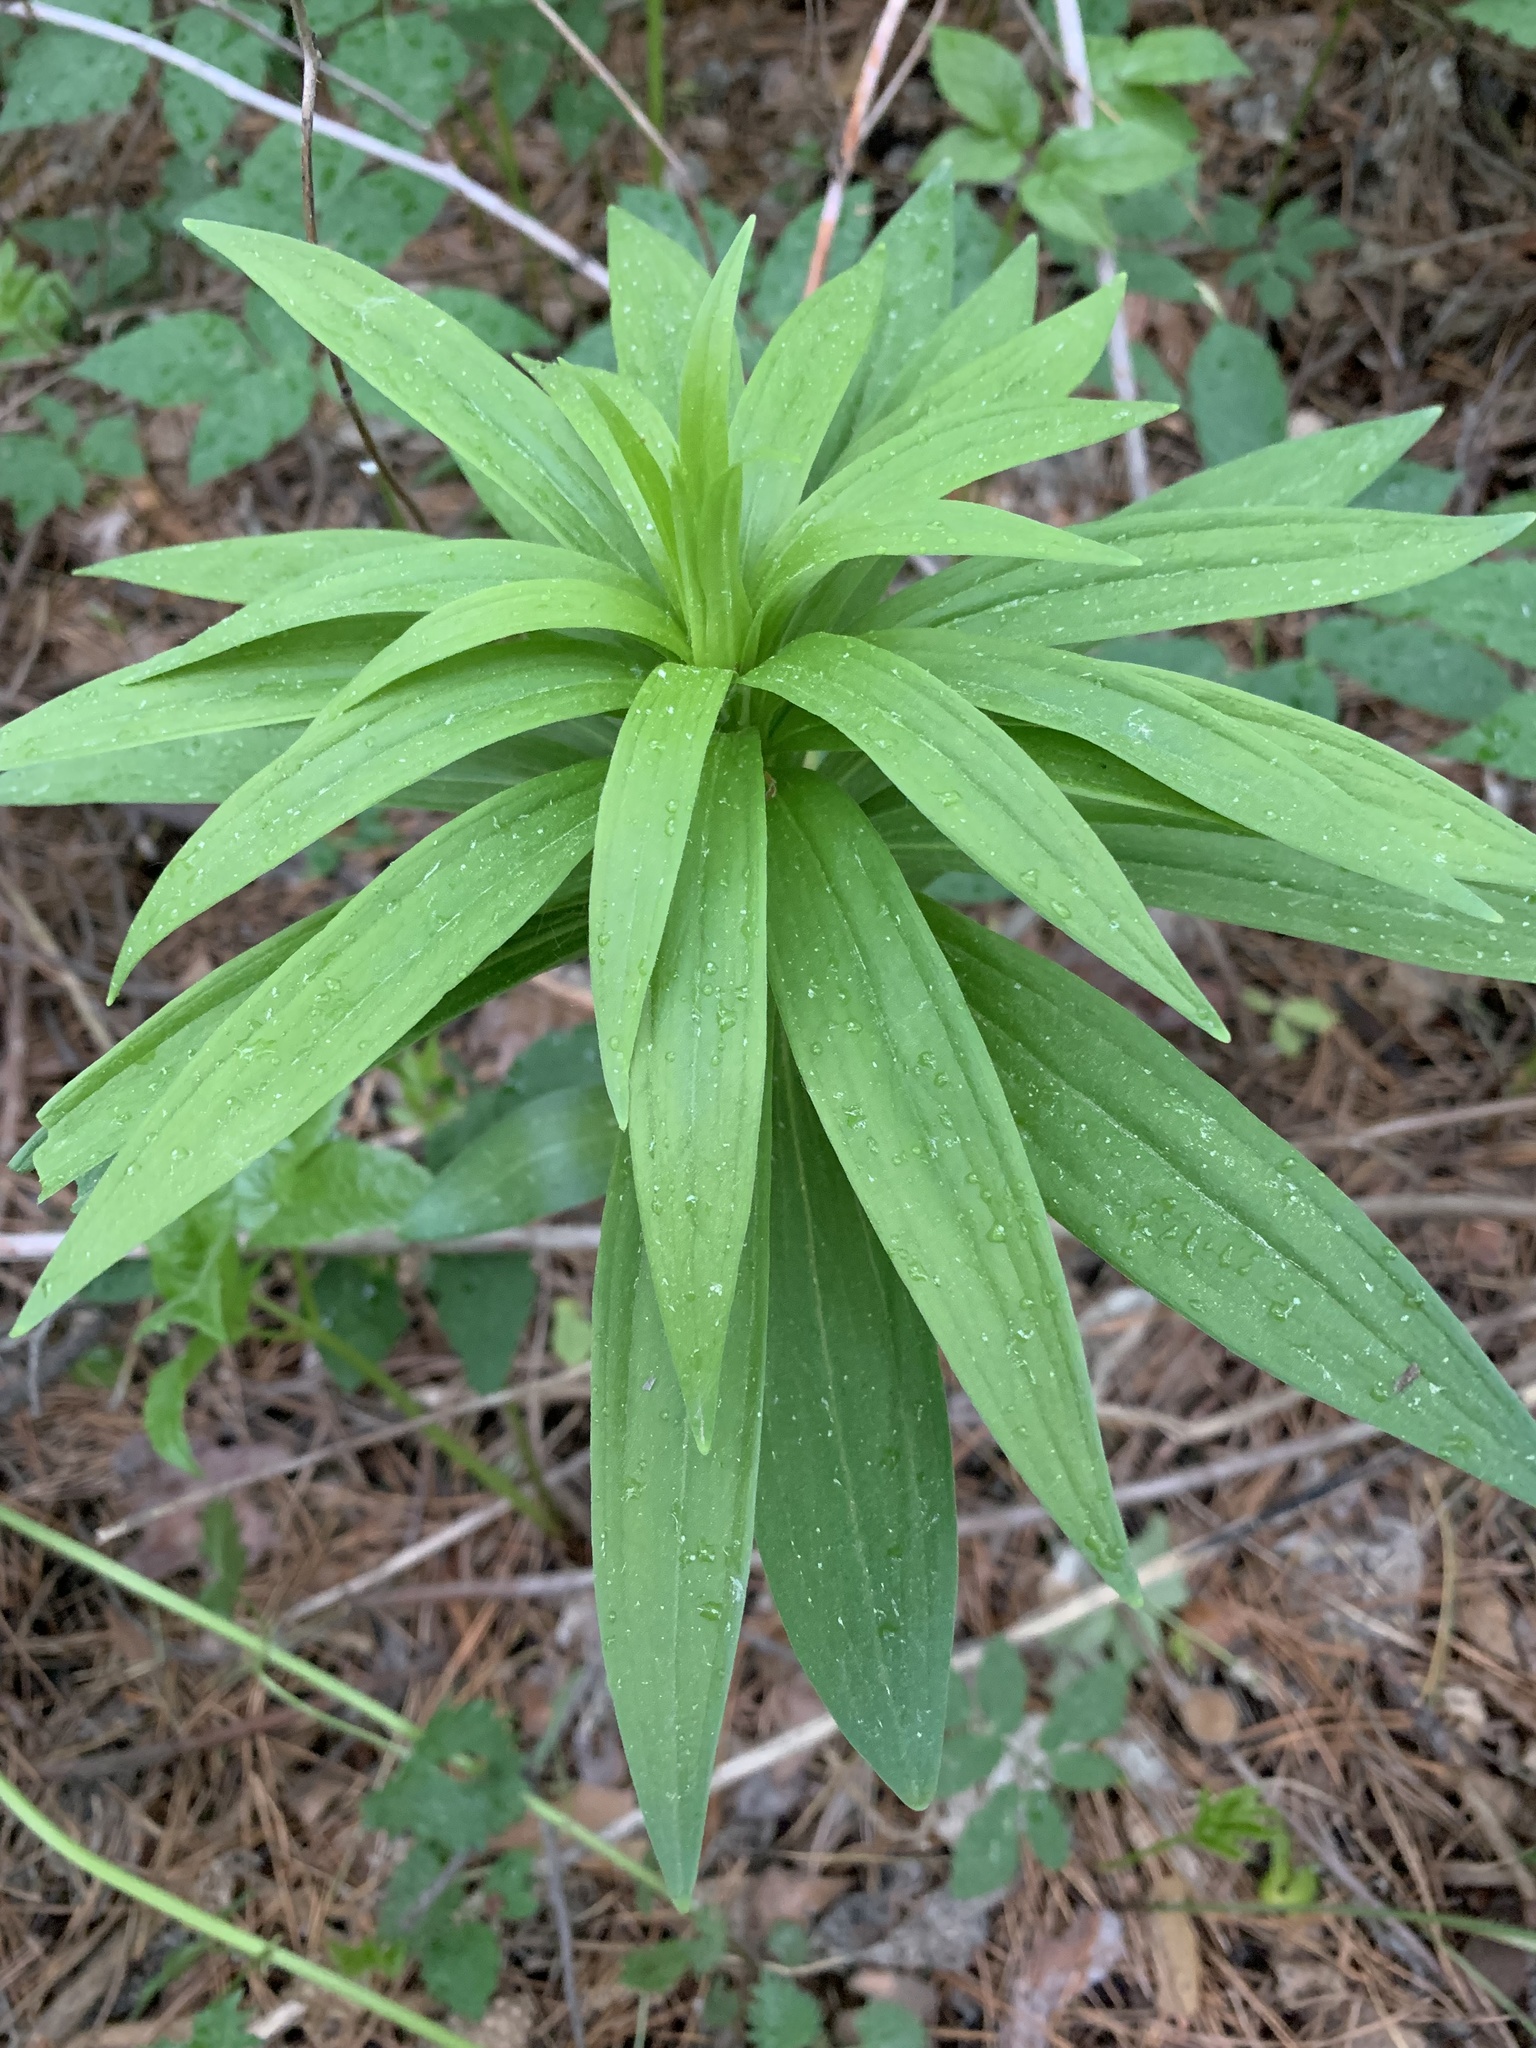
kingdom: Plantae
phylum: Tracheophyta
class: Liliopsida
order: Liliales
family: Liliaceae
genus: Lilium
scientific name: Lilium martagon
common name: Martagon lily
